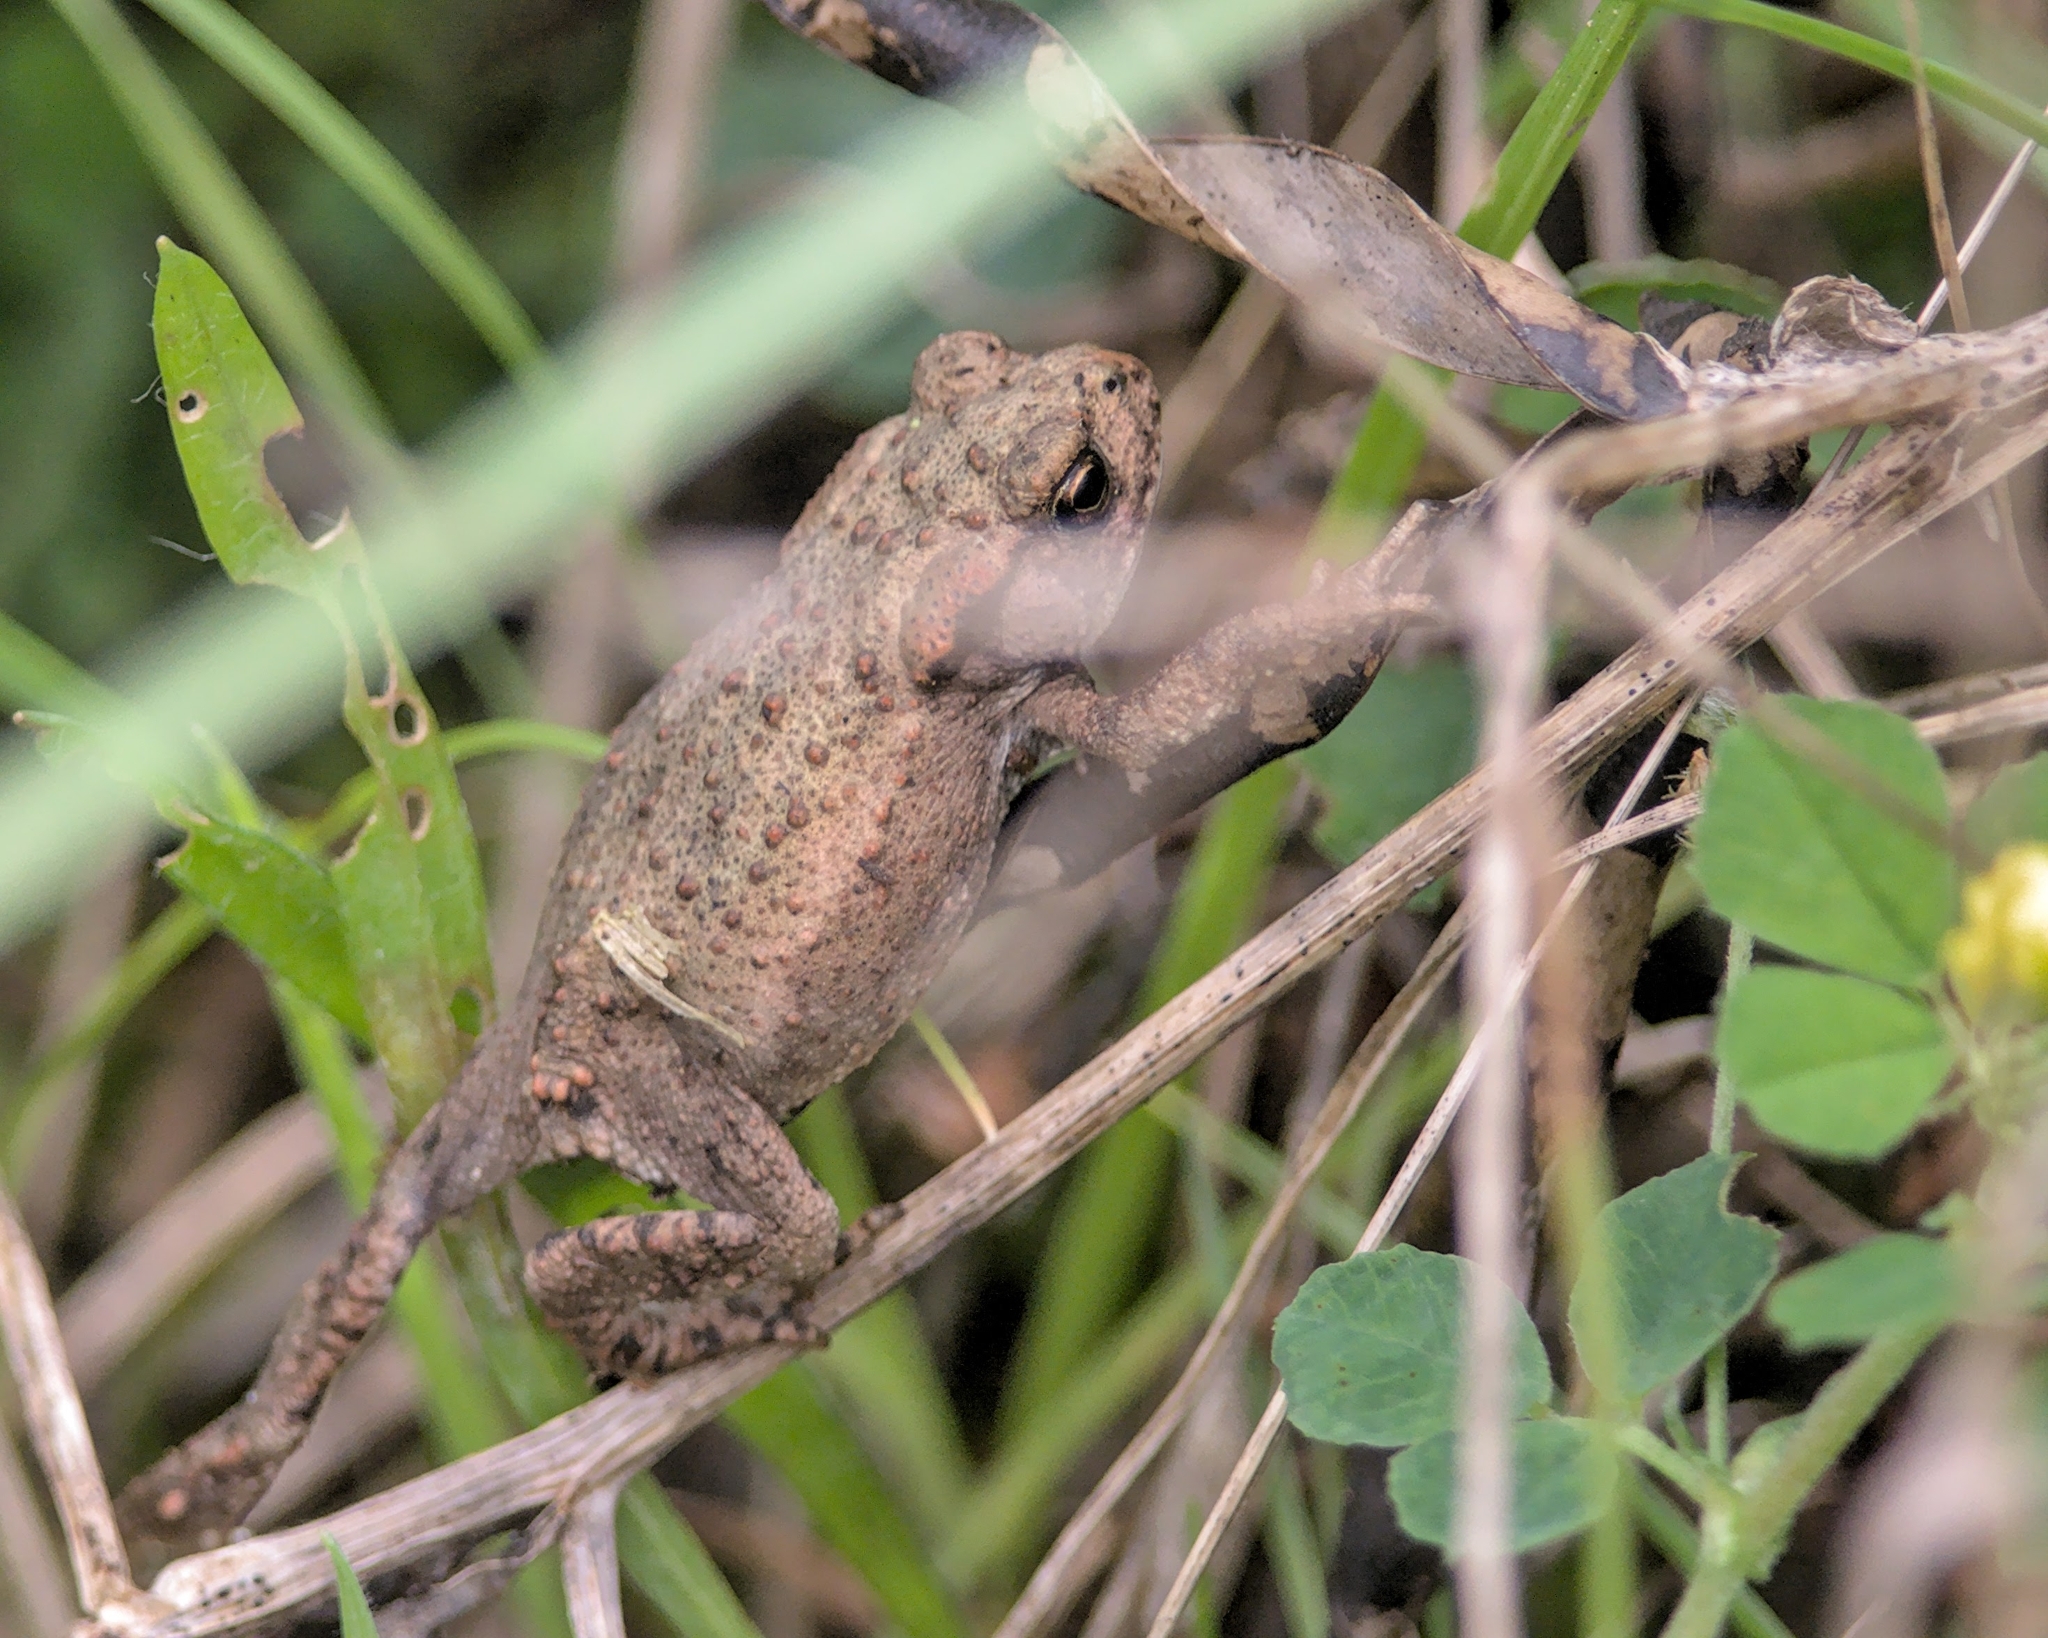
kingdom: Animalia
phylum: Chordata
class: Amphibia
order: Anura
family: Bufonidae
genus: Bufo
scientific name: Bufo bufo
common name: Common toad
